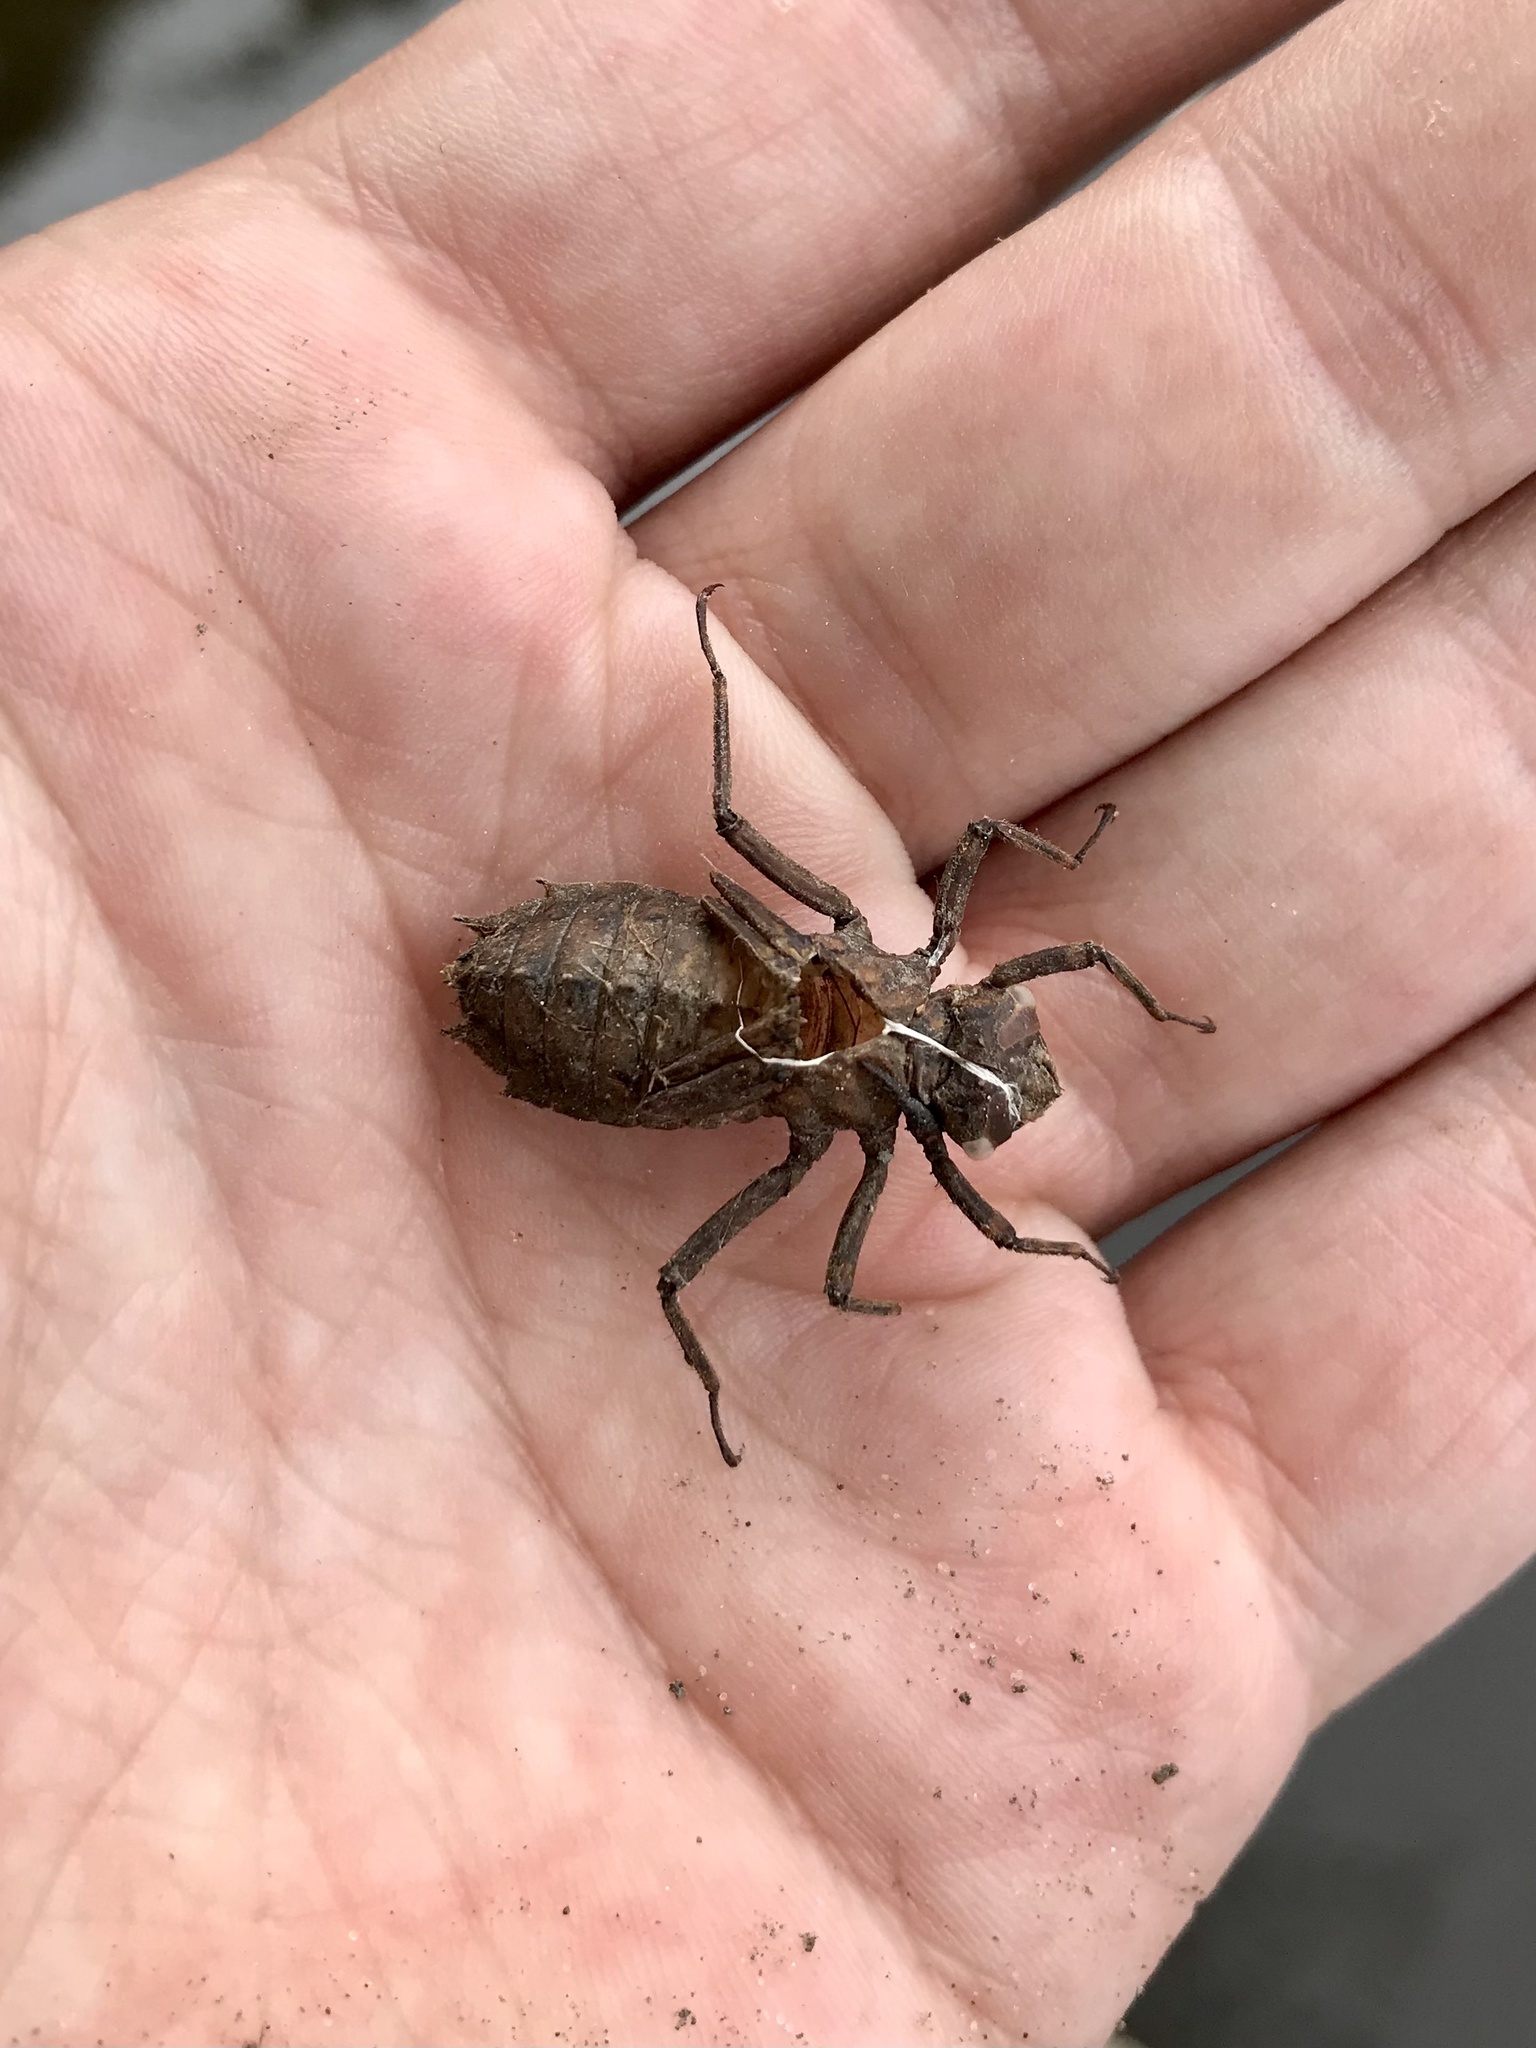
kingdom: Animalia
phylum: Arthropoda
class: Insecta
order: Odonata
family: Corduliidae
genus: Neurocordulia
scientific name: Neurocordulia molesta
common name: Smoky shadowdragon
